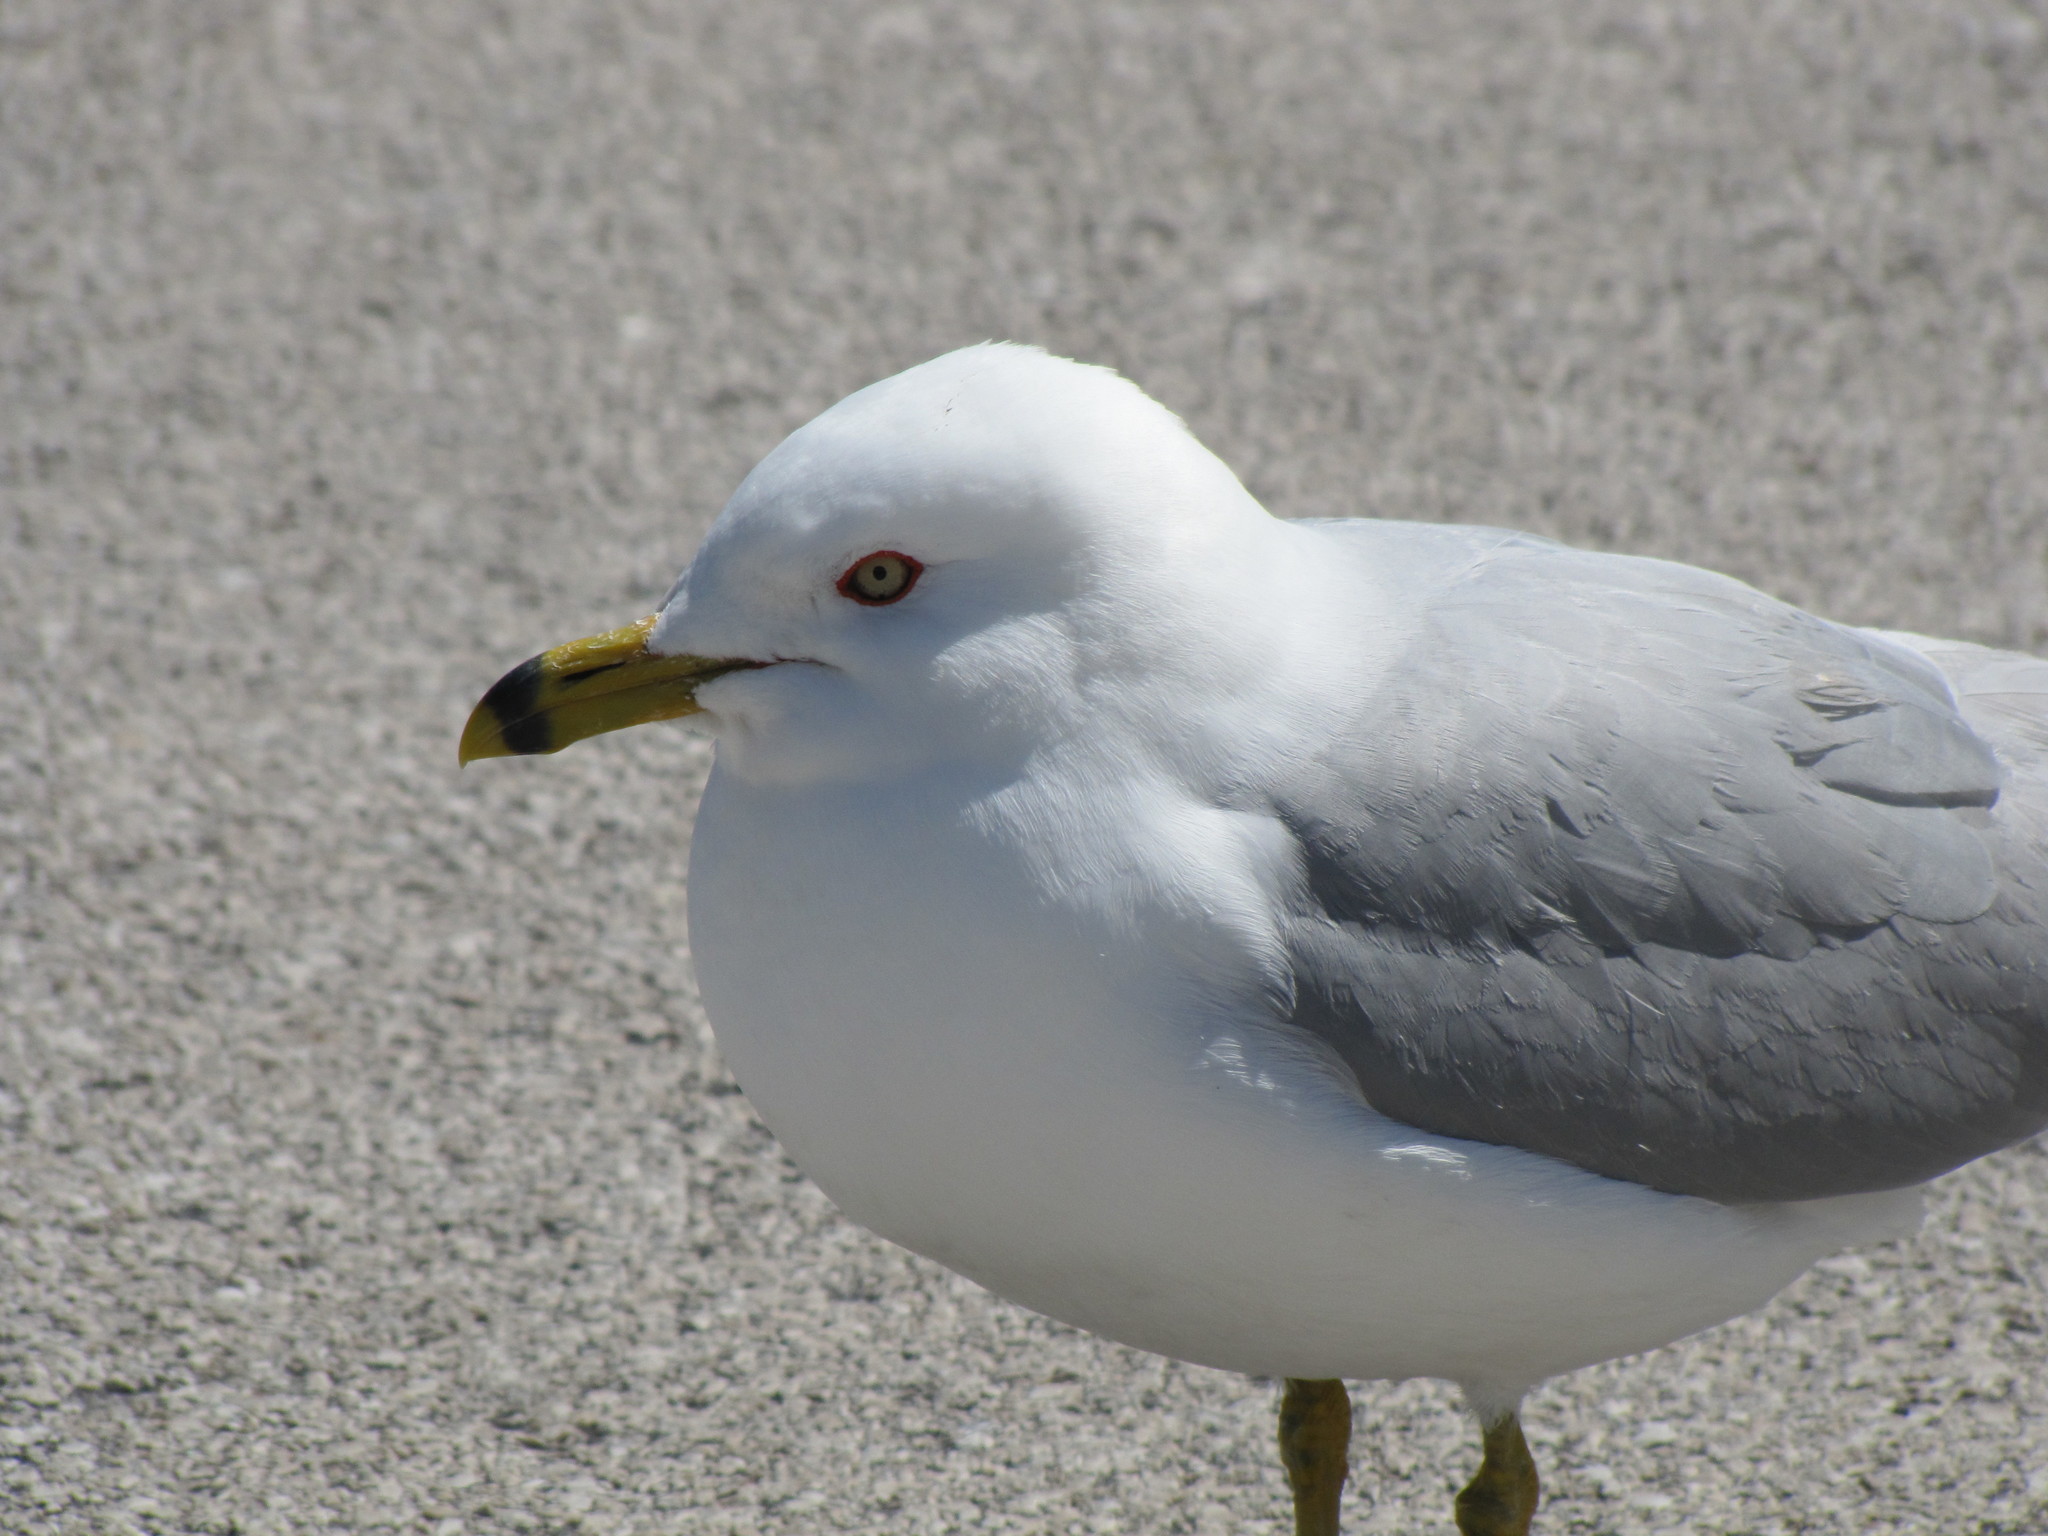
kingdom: Animalia
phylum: Chordata
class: Aves
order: Charadriiformes
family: Laridae
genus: Larus
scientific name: Larus delawarensis
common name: Ring-billed gull
